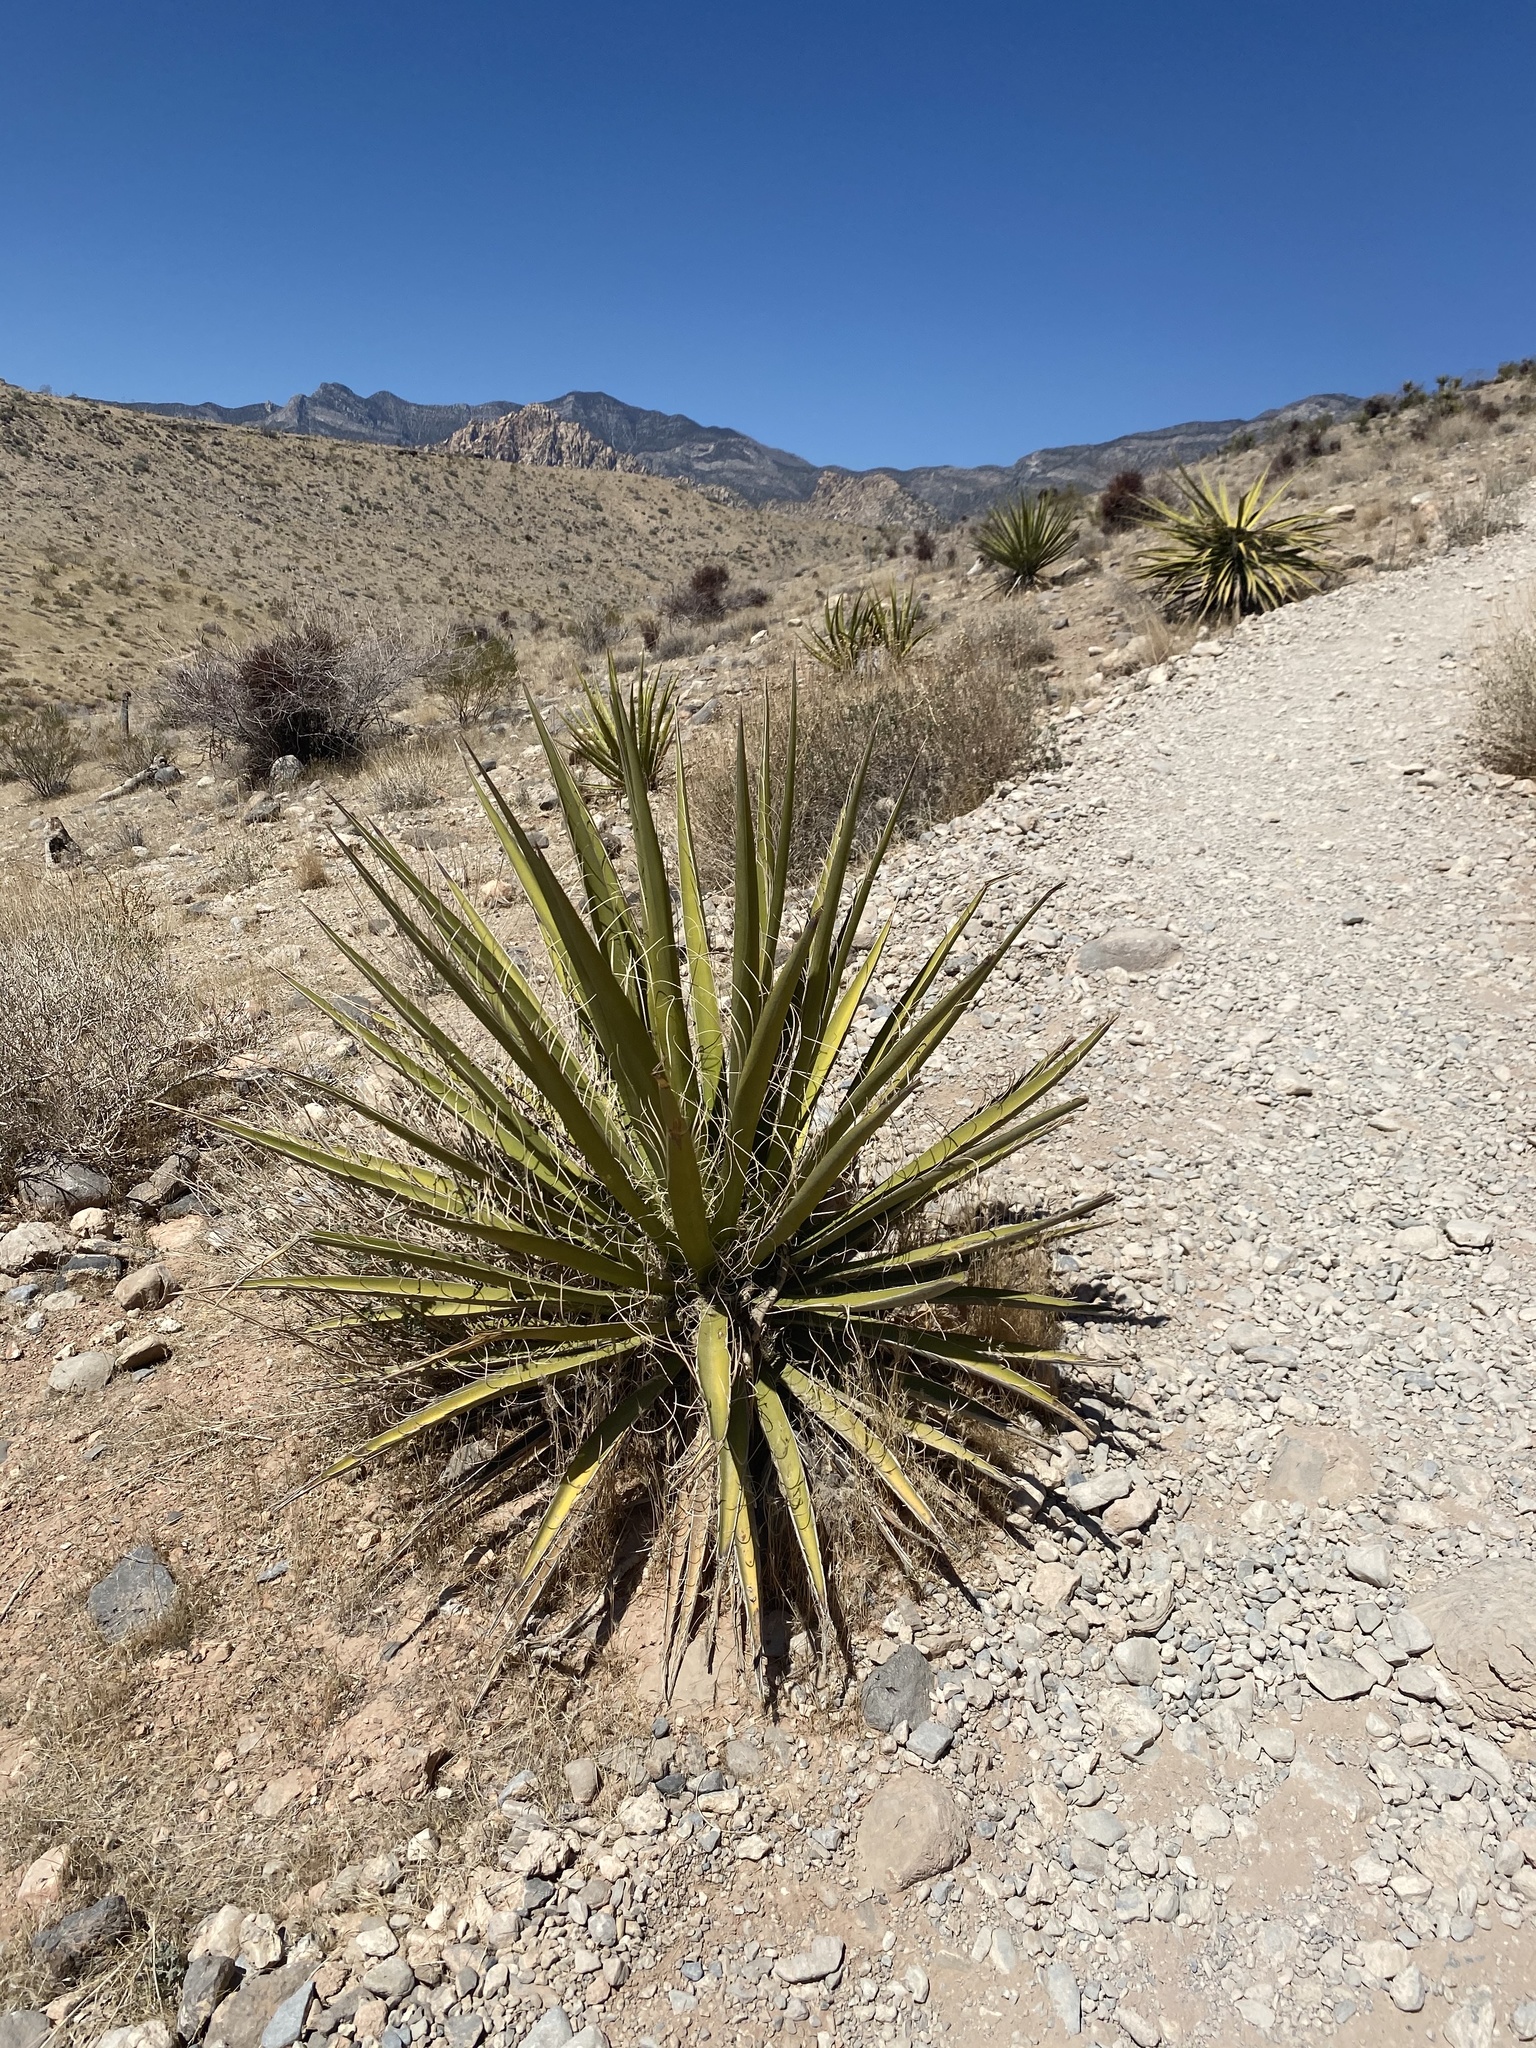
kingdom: Plantae
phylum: Tracheophyta
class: Liliopsida
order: Asparagales
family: Asparagaceae
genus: Yucca
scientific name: Yucca schidigera
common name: Mojave yucca
